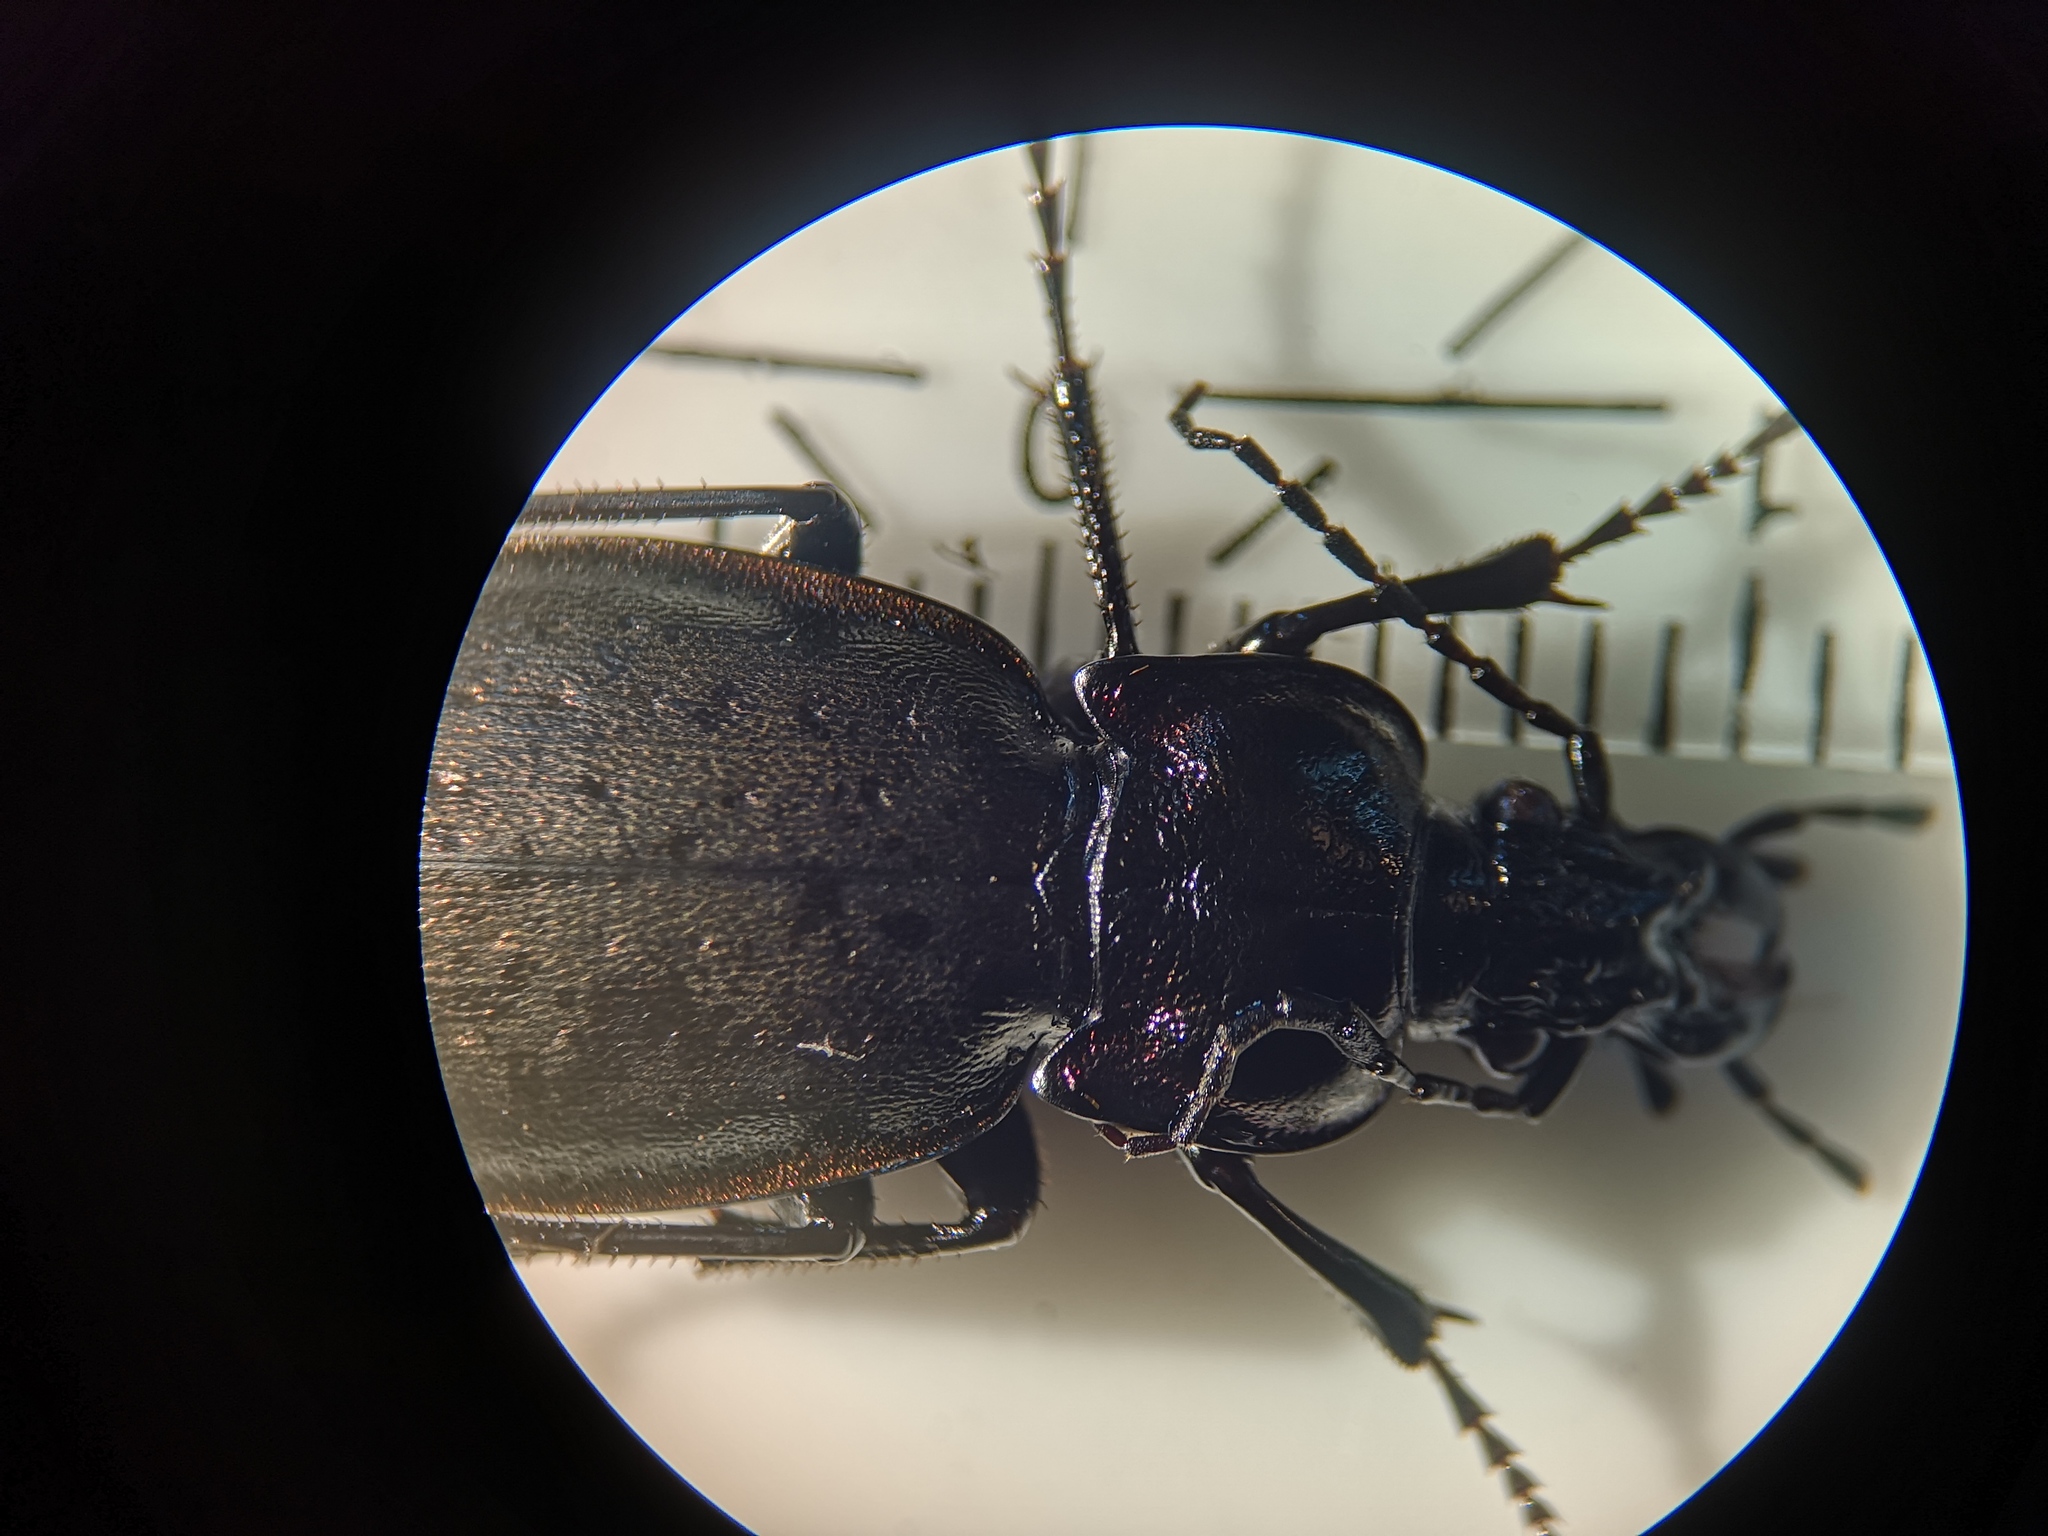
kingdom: Animalia
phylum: Arthropoda
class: Insecta
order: Coleoptera
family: Carabidae
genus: Carabus
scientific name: Carabus nemoralis
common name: European ground beetle
